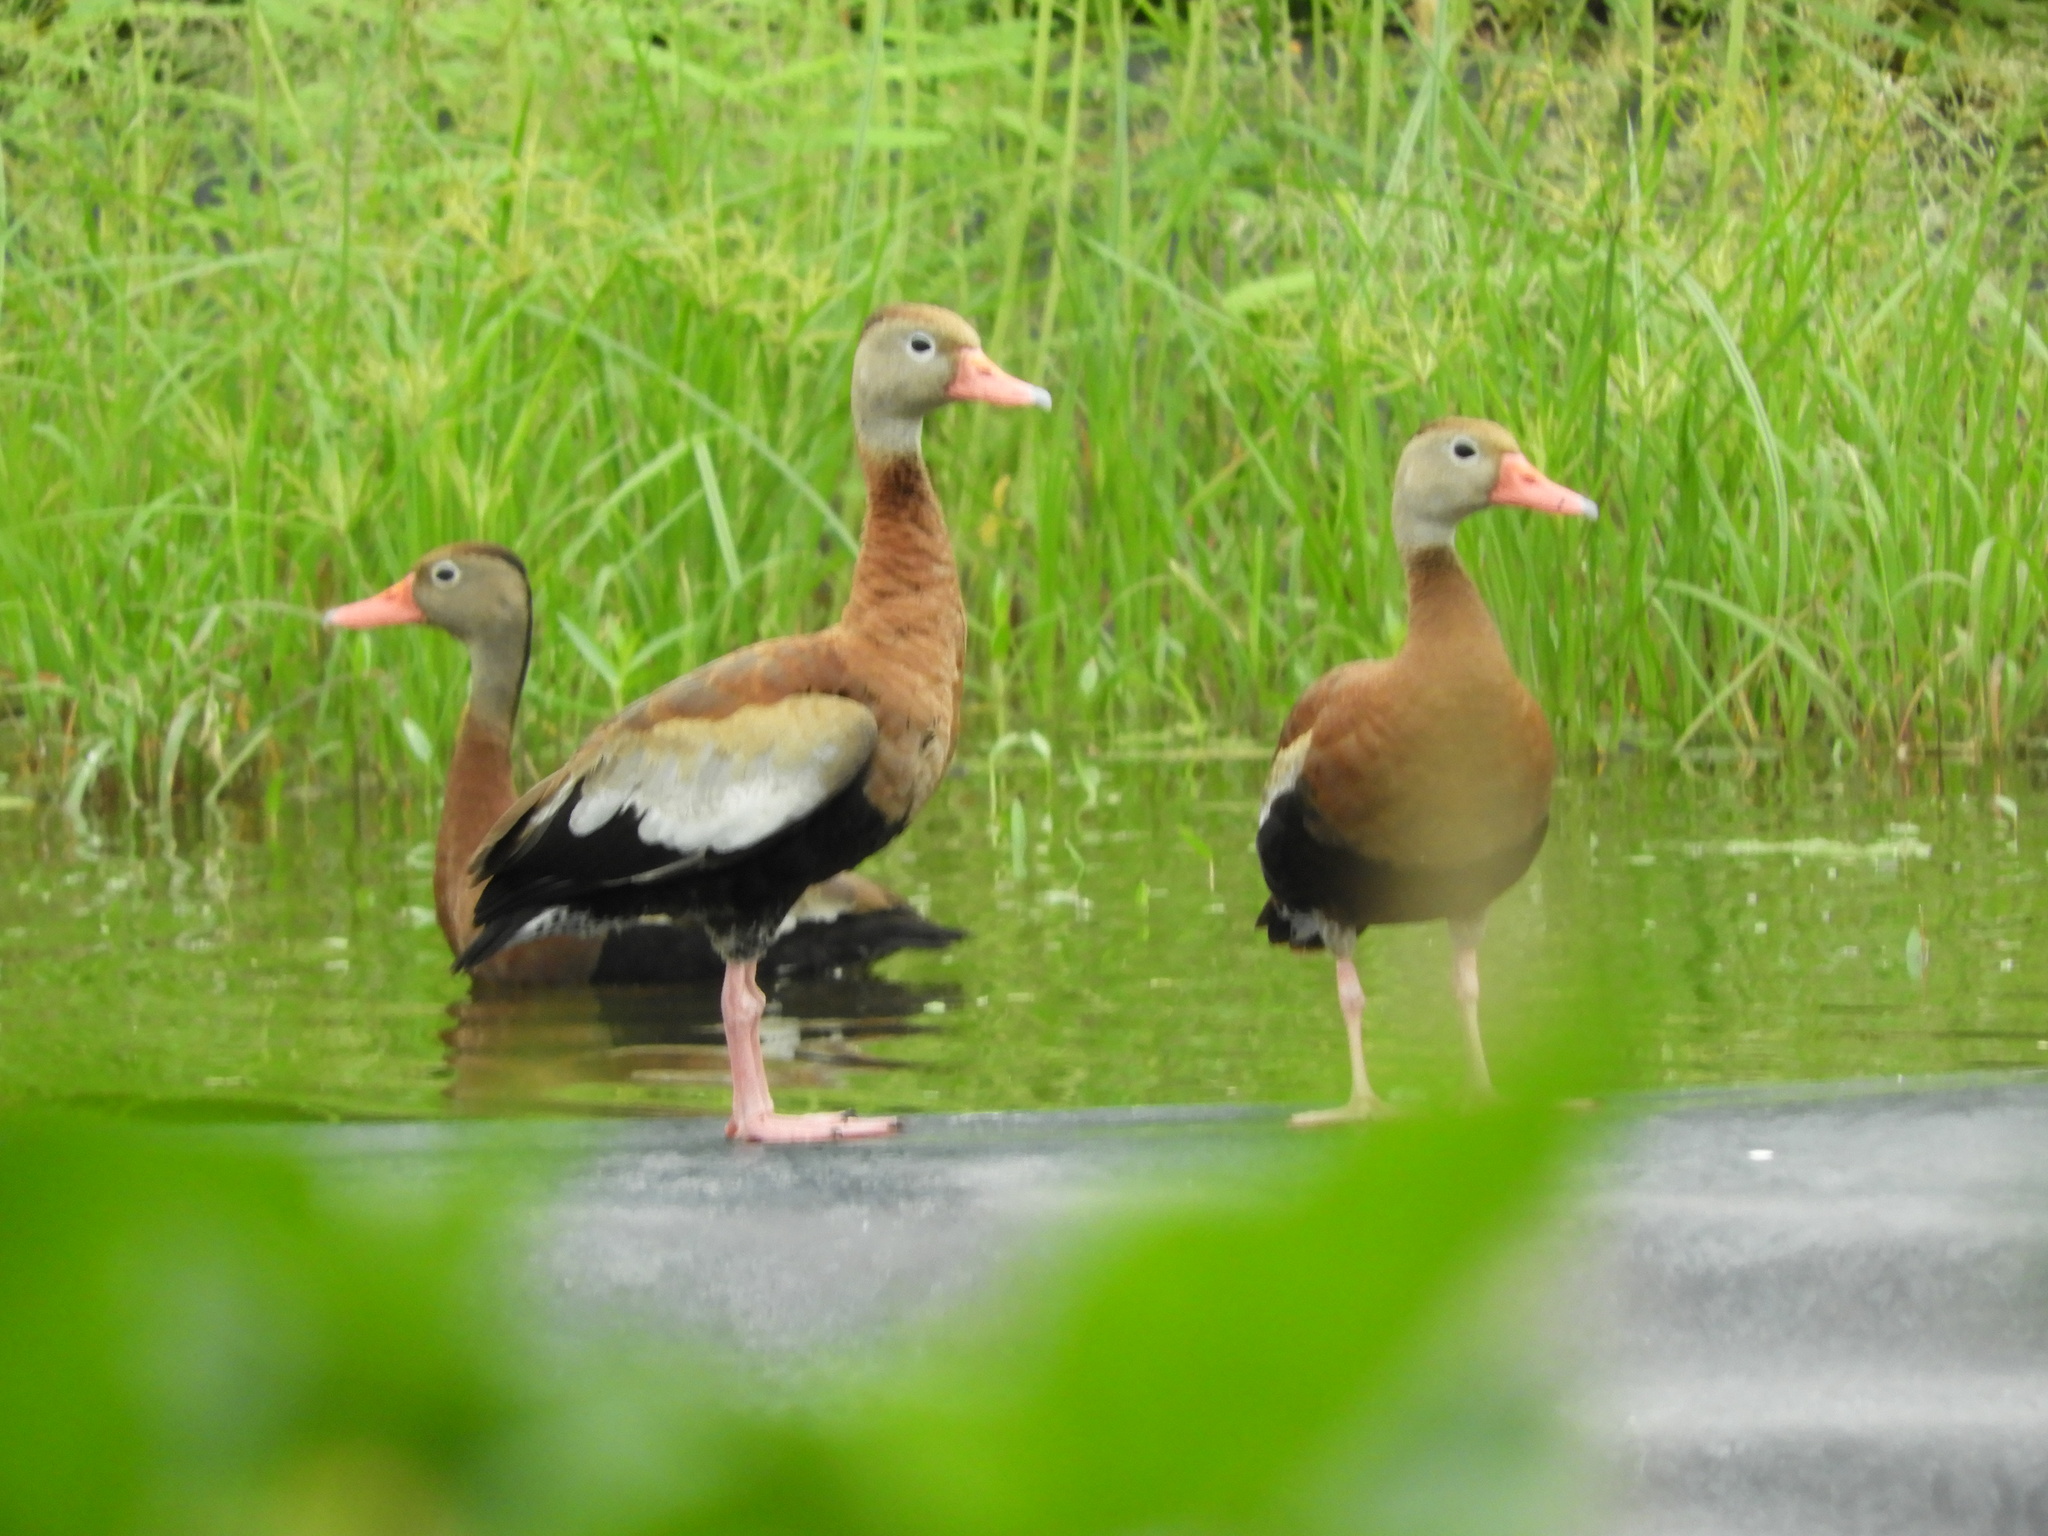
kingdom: Animalia
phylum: Chordata
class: Aves
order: Anseriformes
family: Anatidae
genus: Dendrocygna
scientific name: Dendrocygna autumnalis
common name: Black-bellied whistling duck
